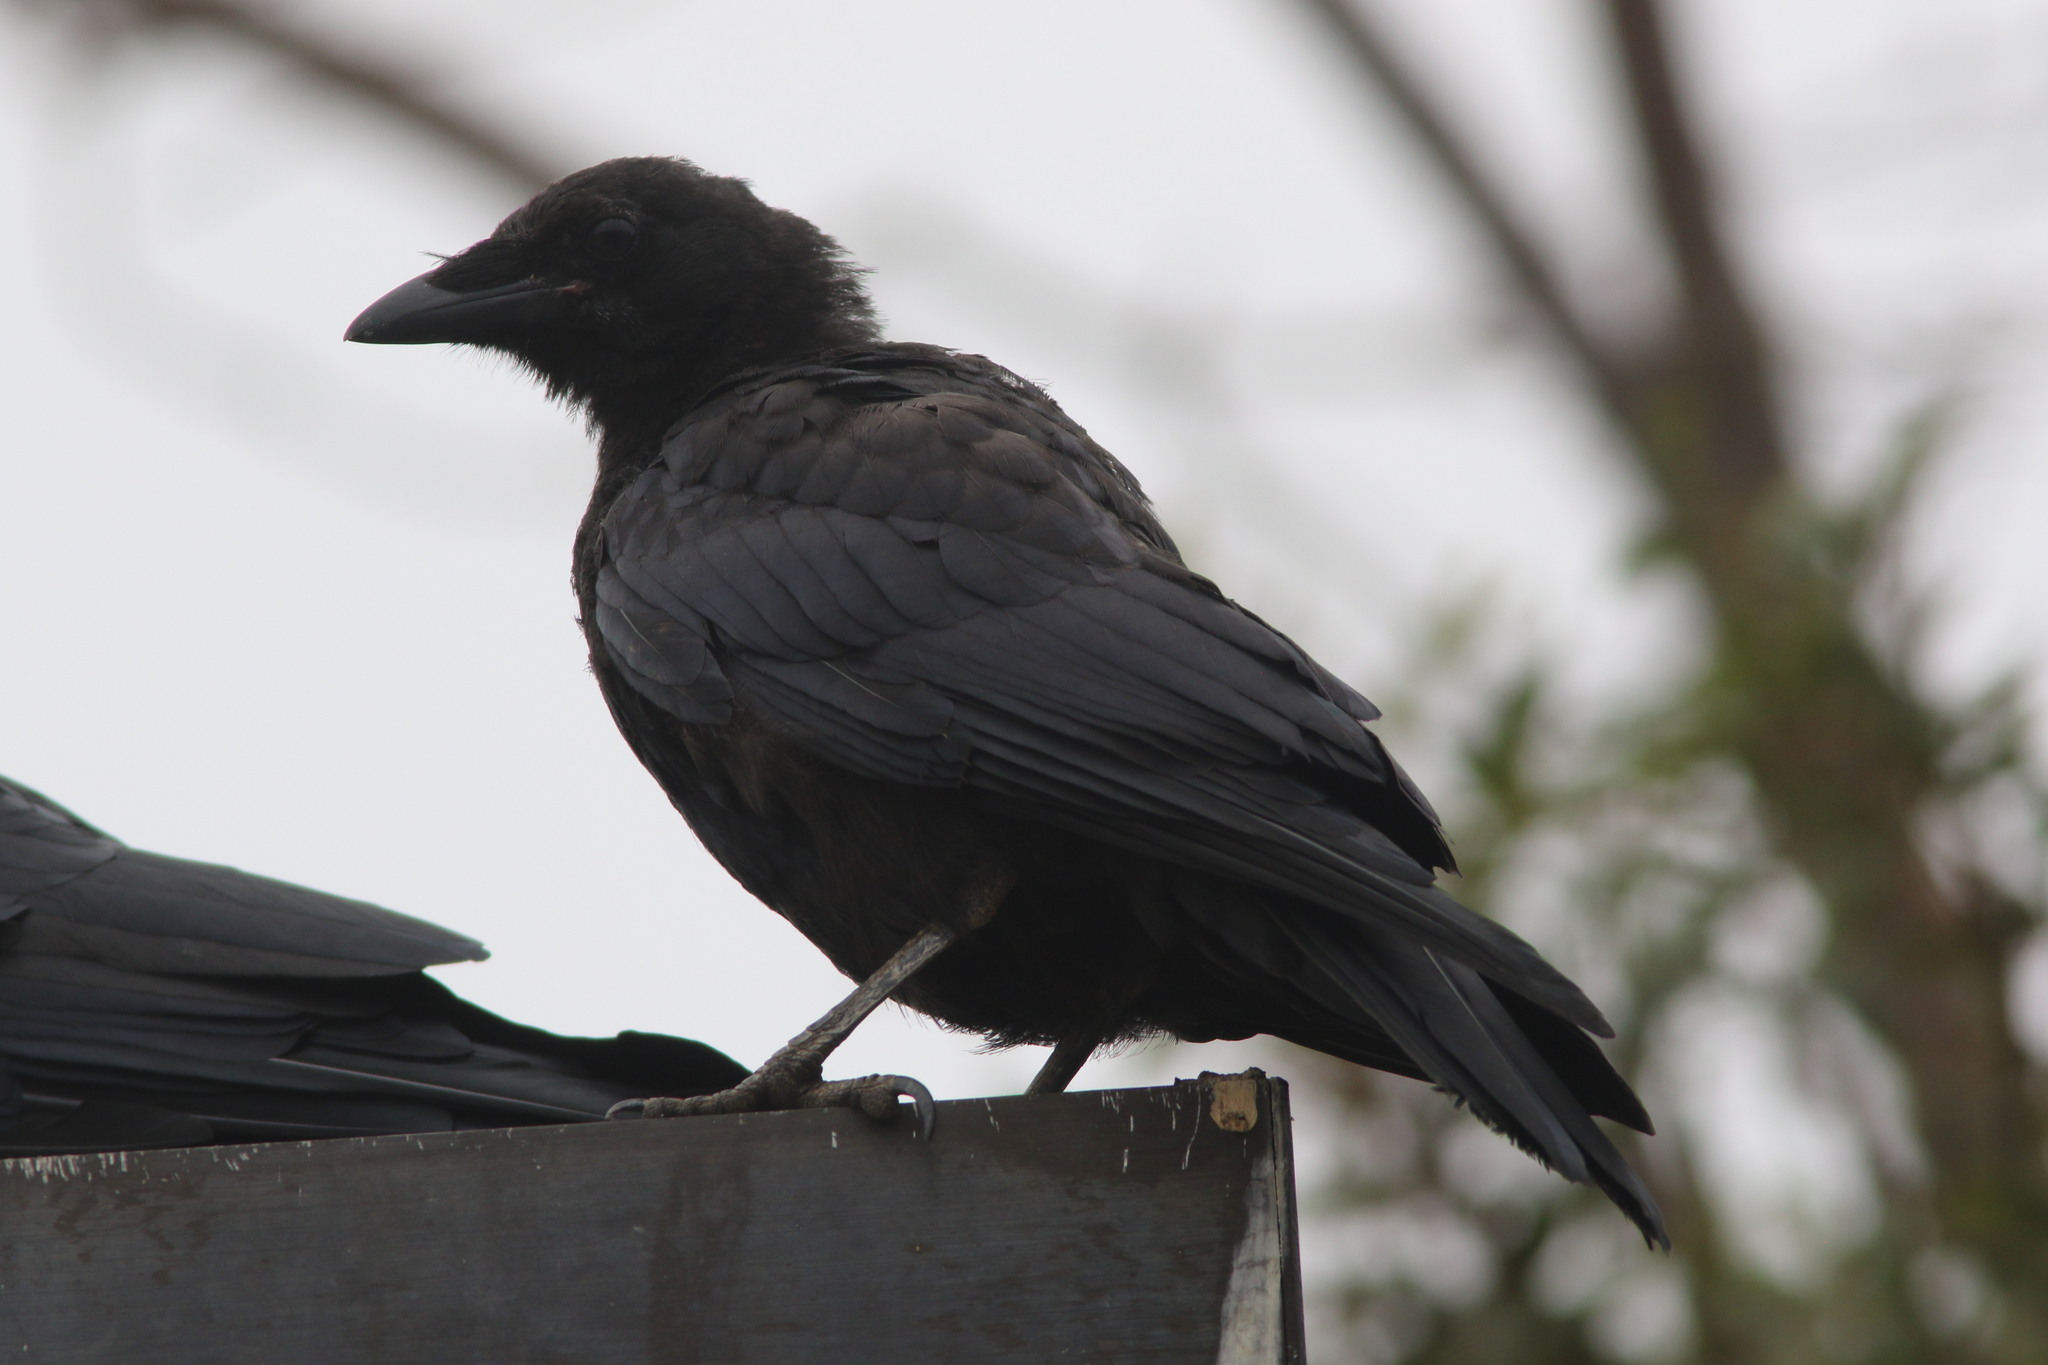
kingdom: Animalia
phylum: Chordata
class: Aves
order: Passeriformes
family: Corvidae
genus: Corvus
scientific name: Corvus brachyrhynchos
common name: American crow
